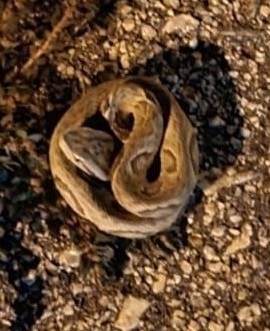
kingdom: Animalia
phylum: Chordata
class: Squamata
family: Viperidae
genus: Bothrops
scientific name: Bothrops jararaca
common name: Jararaca
